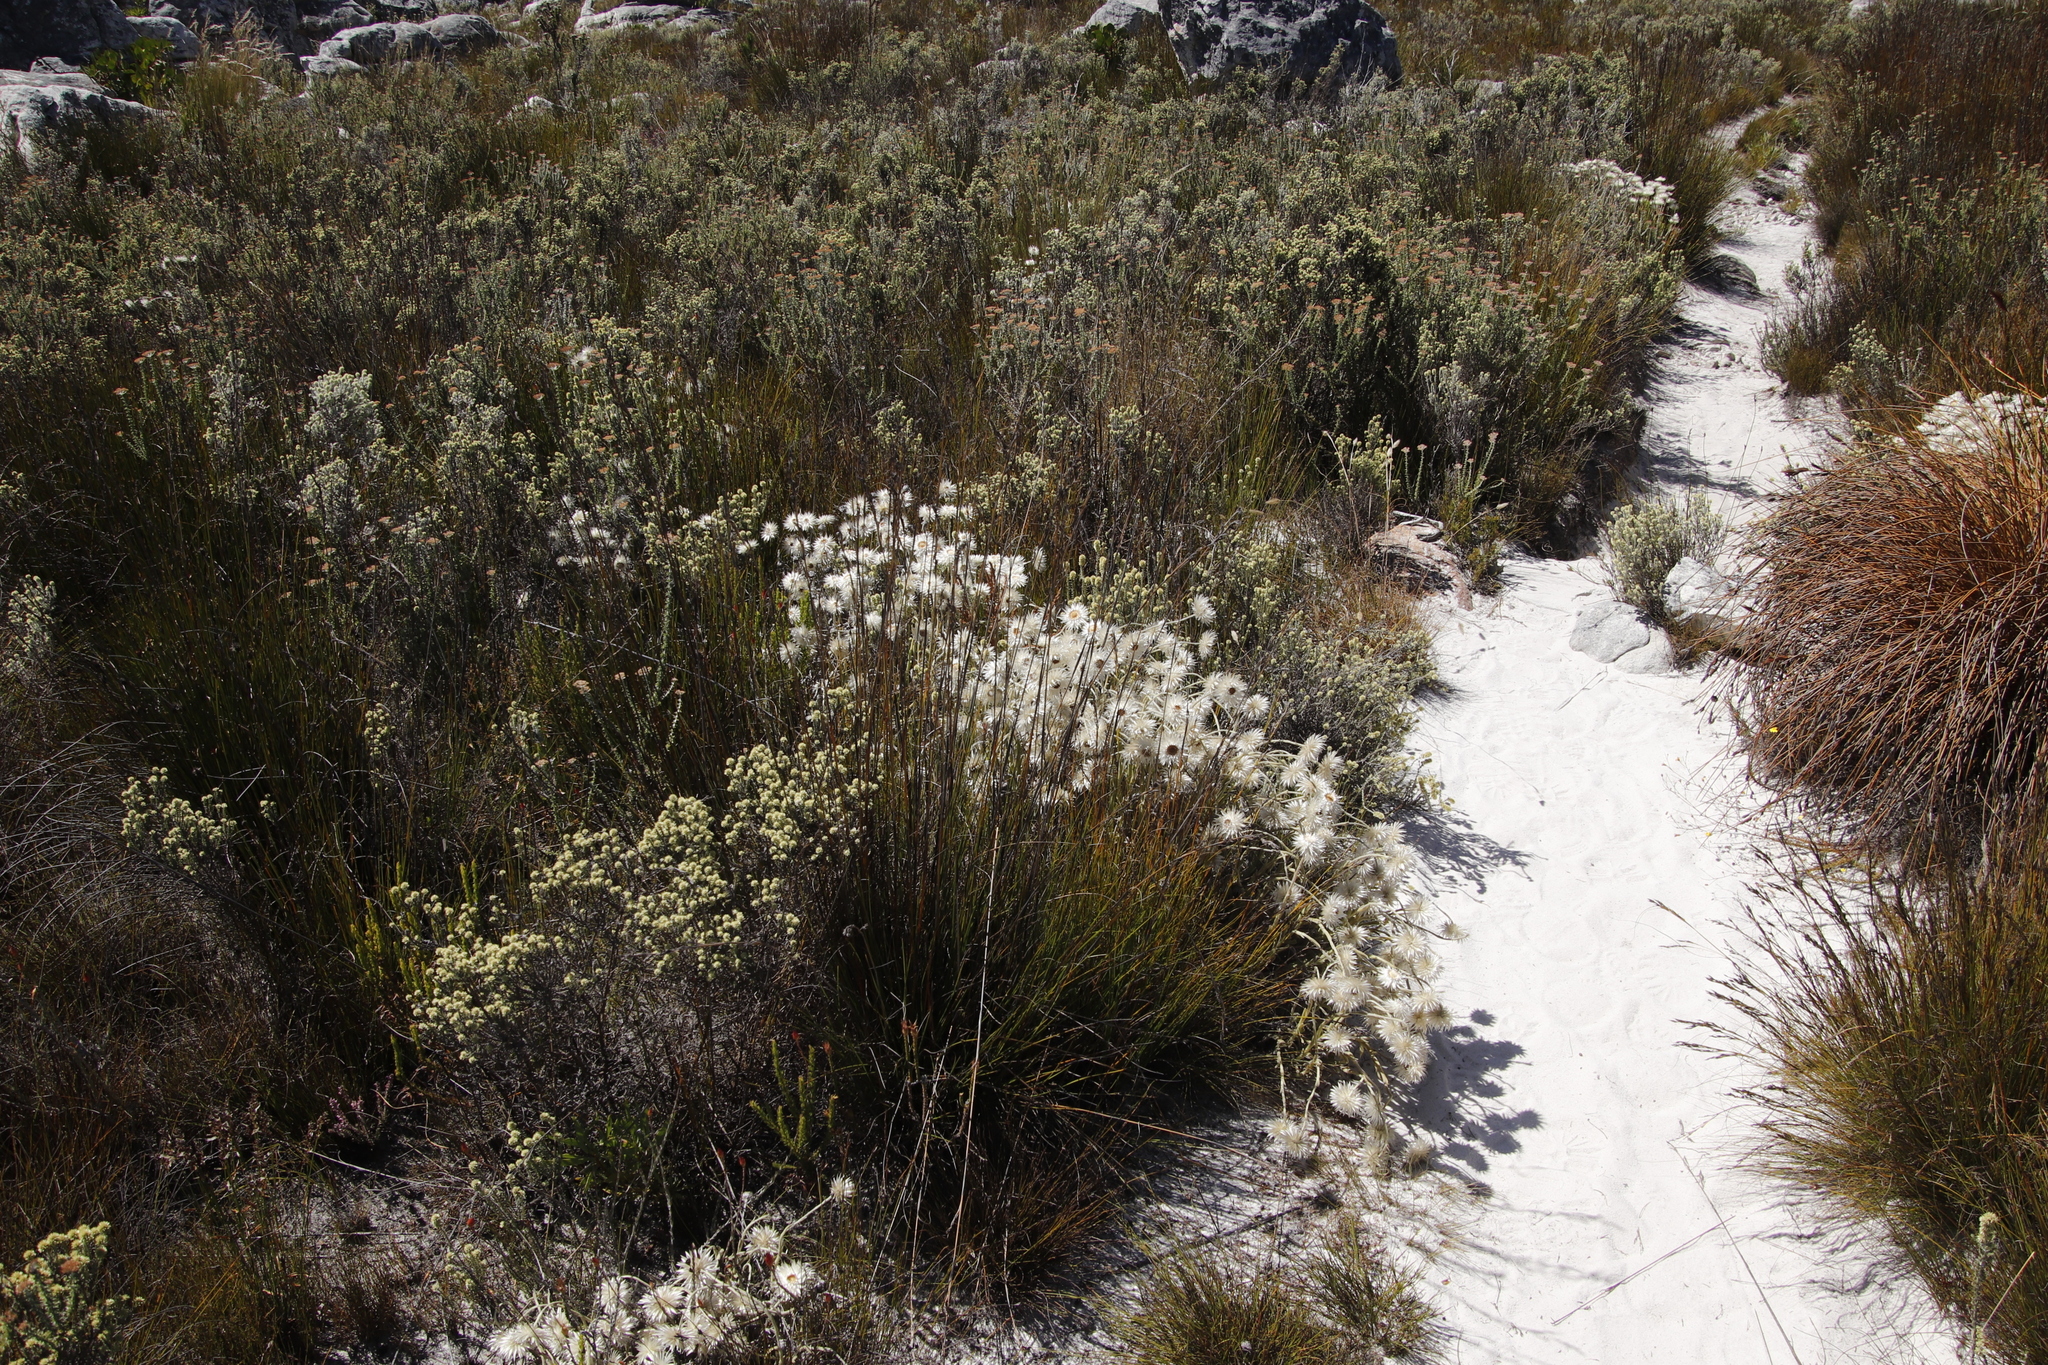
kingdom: Plantae
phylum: Tracheophyta
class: Magnoliopsida
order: Asterales
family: Asteraceae
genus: Seriphium
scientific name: Seriphium spirale
